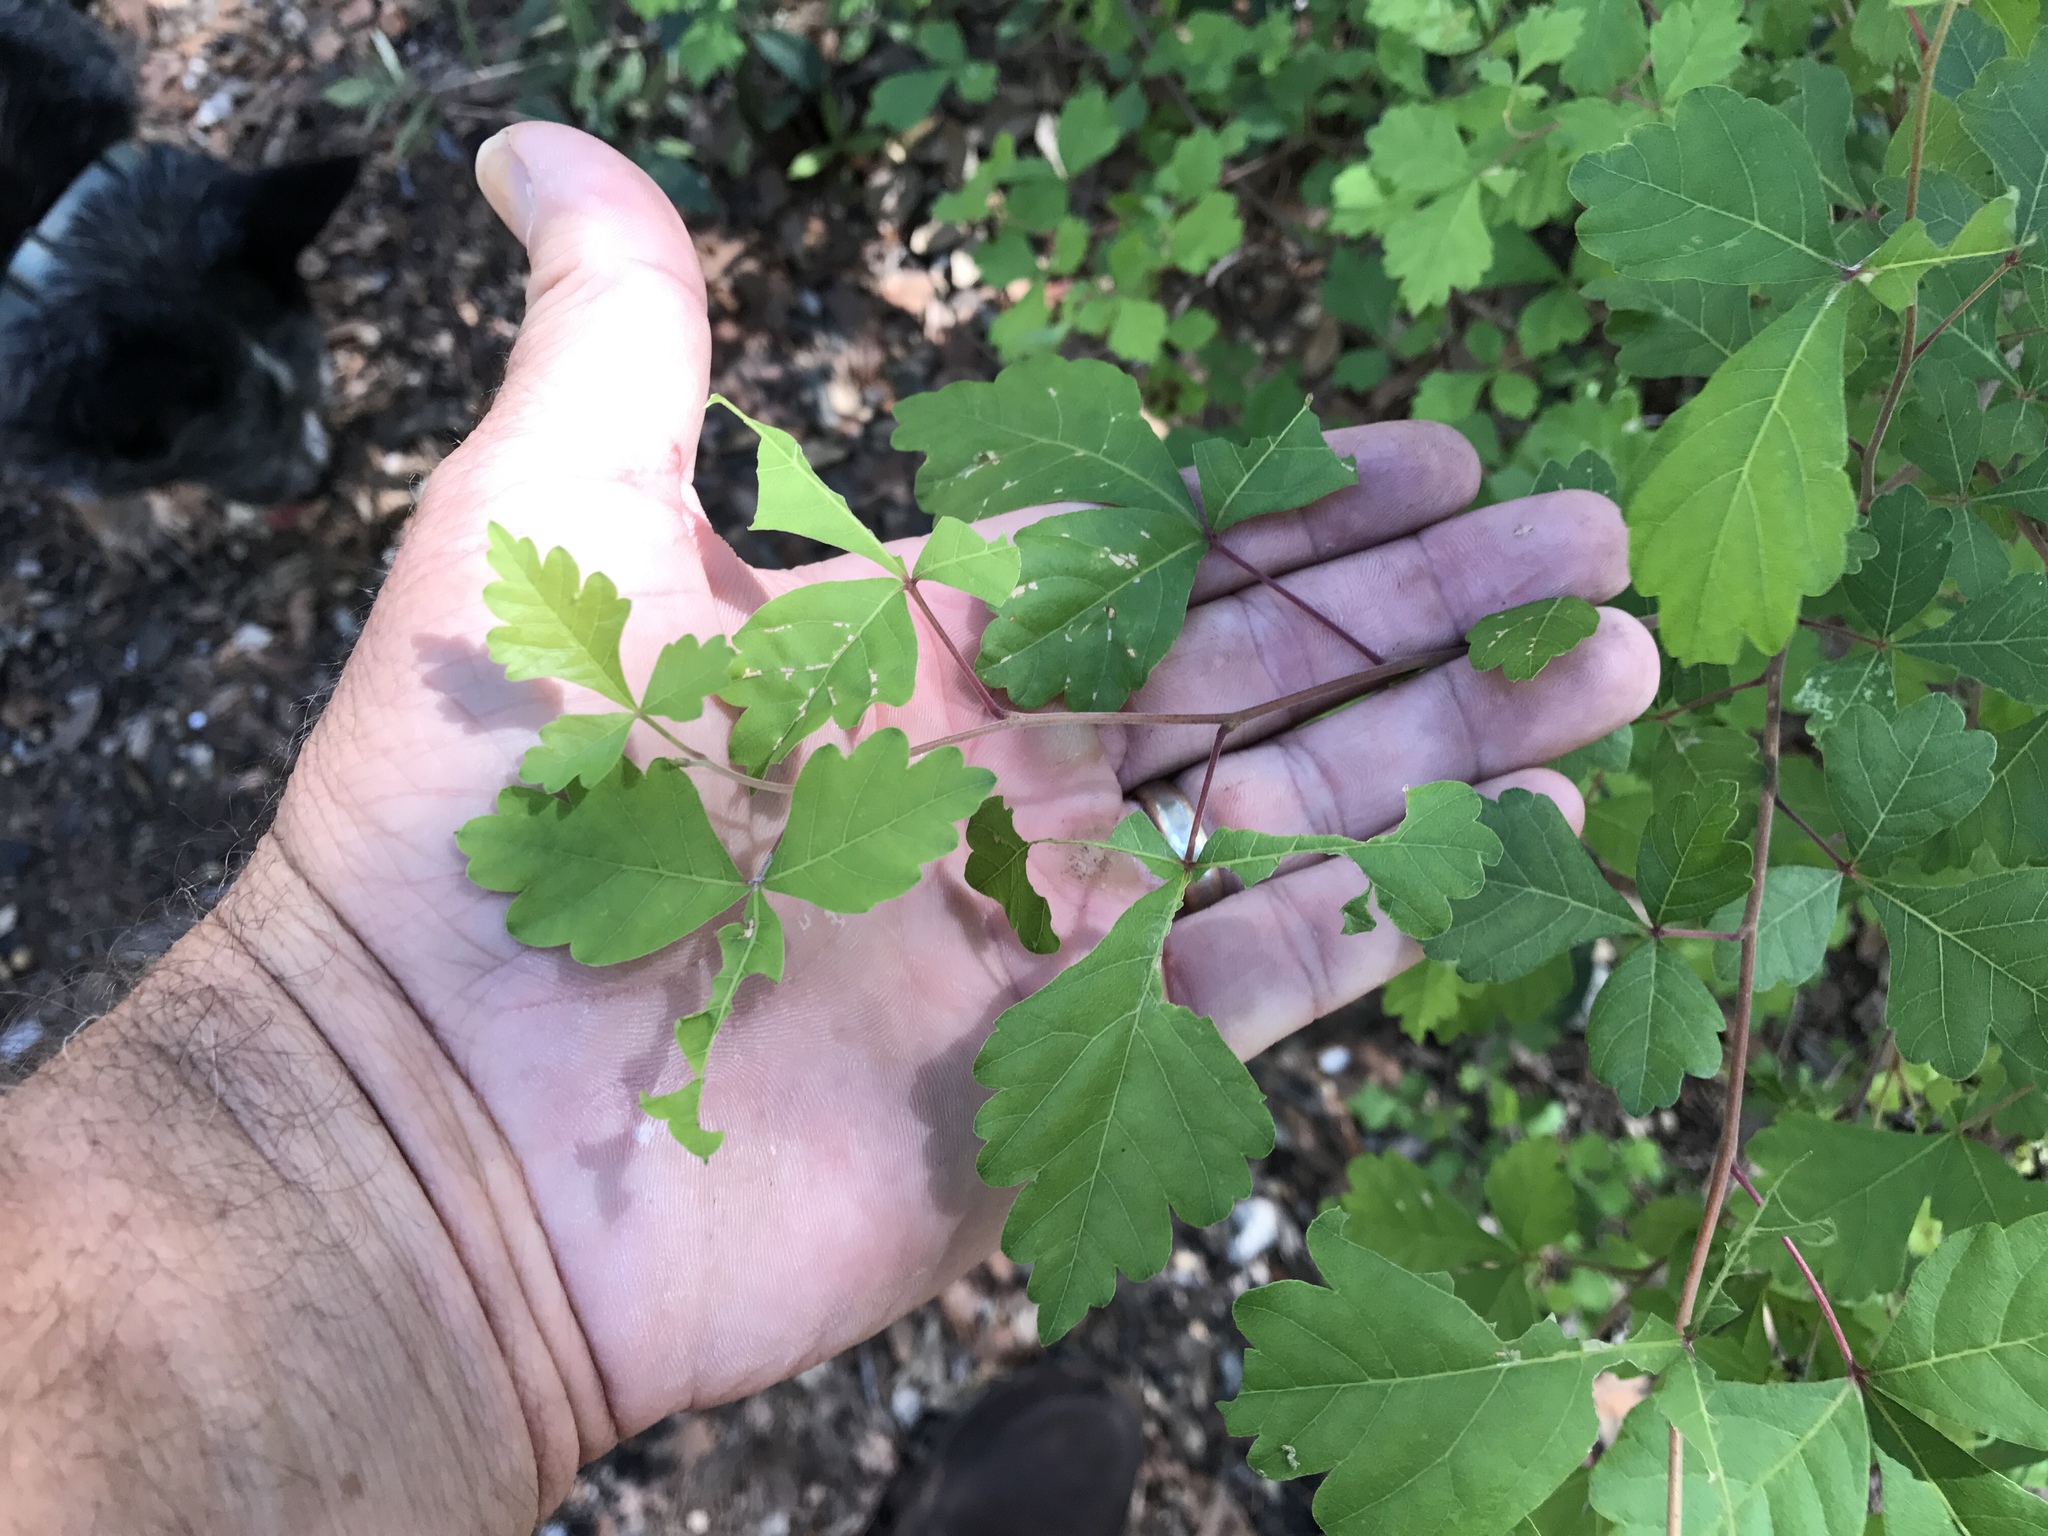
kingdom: Plantae
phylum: Tracheophyta
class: Magnoliopsida
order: Sapindales
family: Anacardiaceae
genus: Rhus
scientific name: Rhus aromatica
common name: Aromatic sumac
